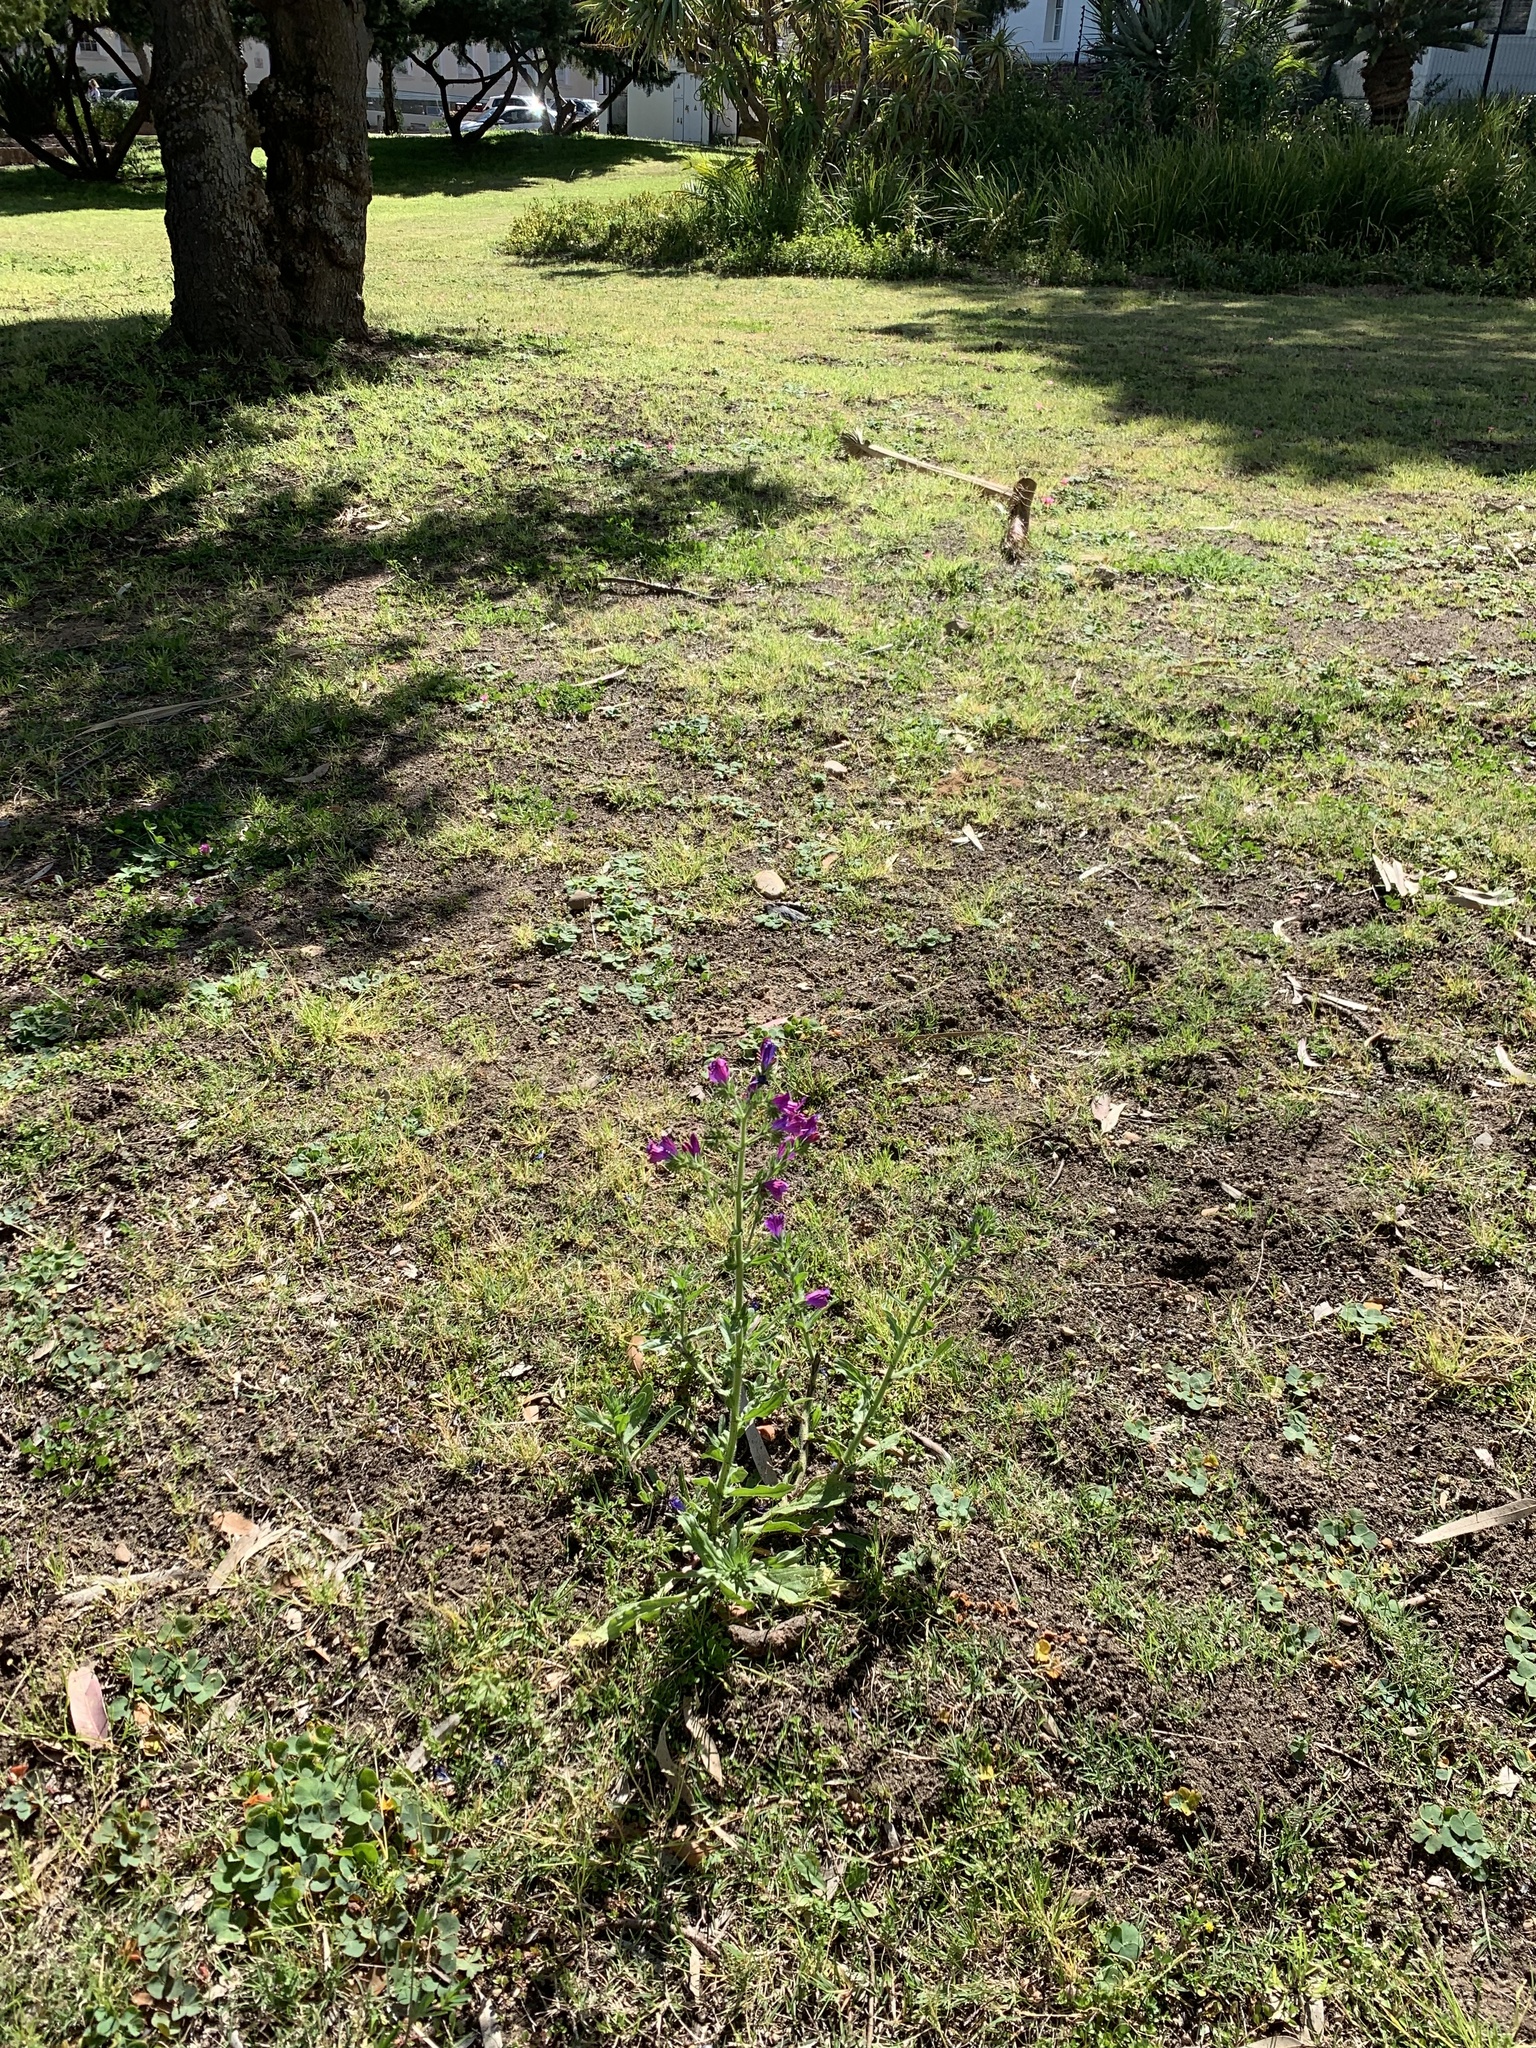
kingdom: Plantae
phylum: Tracheophyta
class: Magnoliopsida
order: Boraginales
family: Boraginaceae
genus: Echium
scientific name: Echium plantagineum
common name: Purple viper's-bugloss
